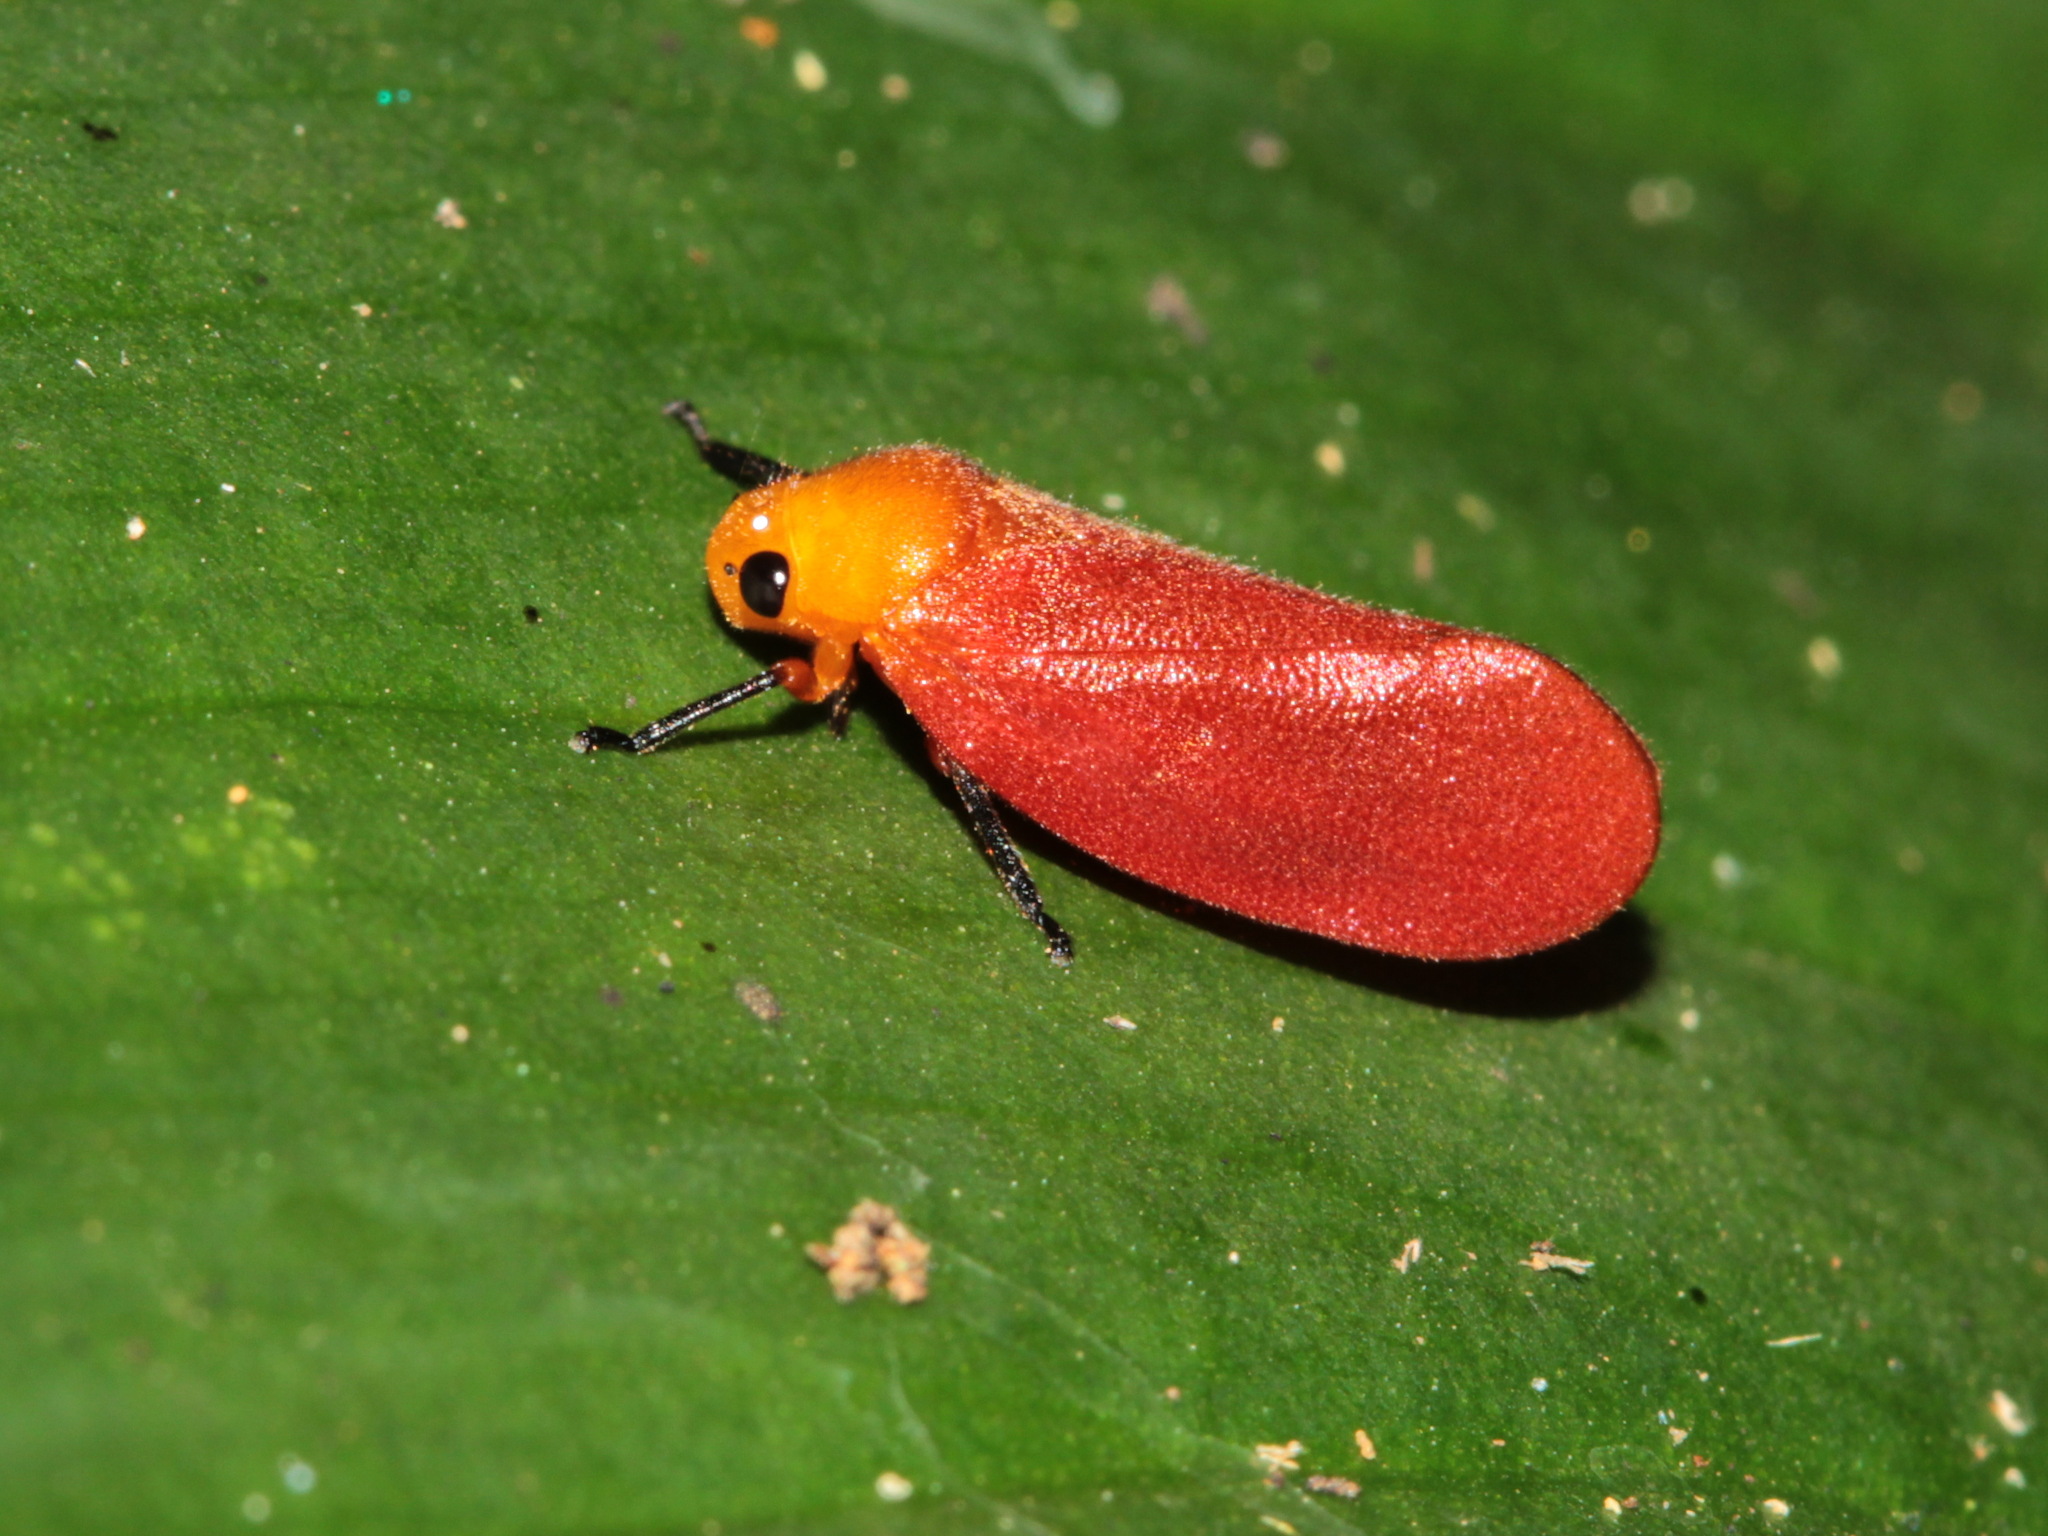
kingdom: Animalia
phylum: Arthropoda
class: Insecta
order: Hemiptera
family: Cercopidae
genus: Eoscarta
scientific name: Eoscarta borealis
